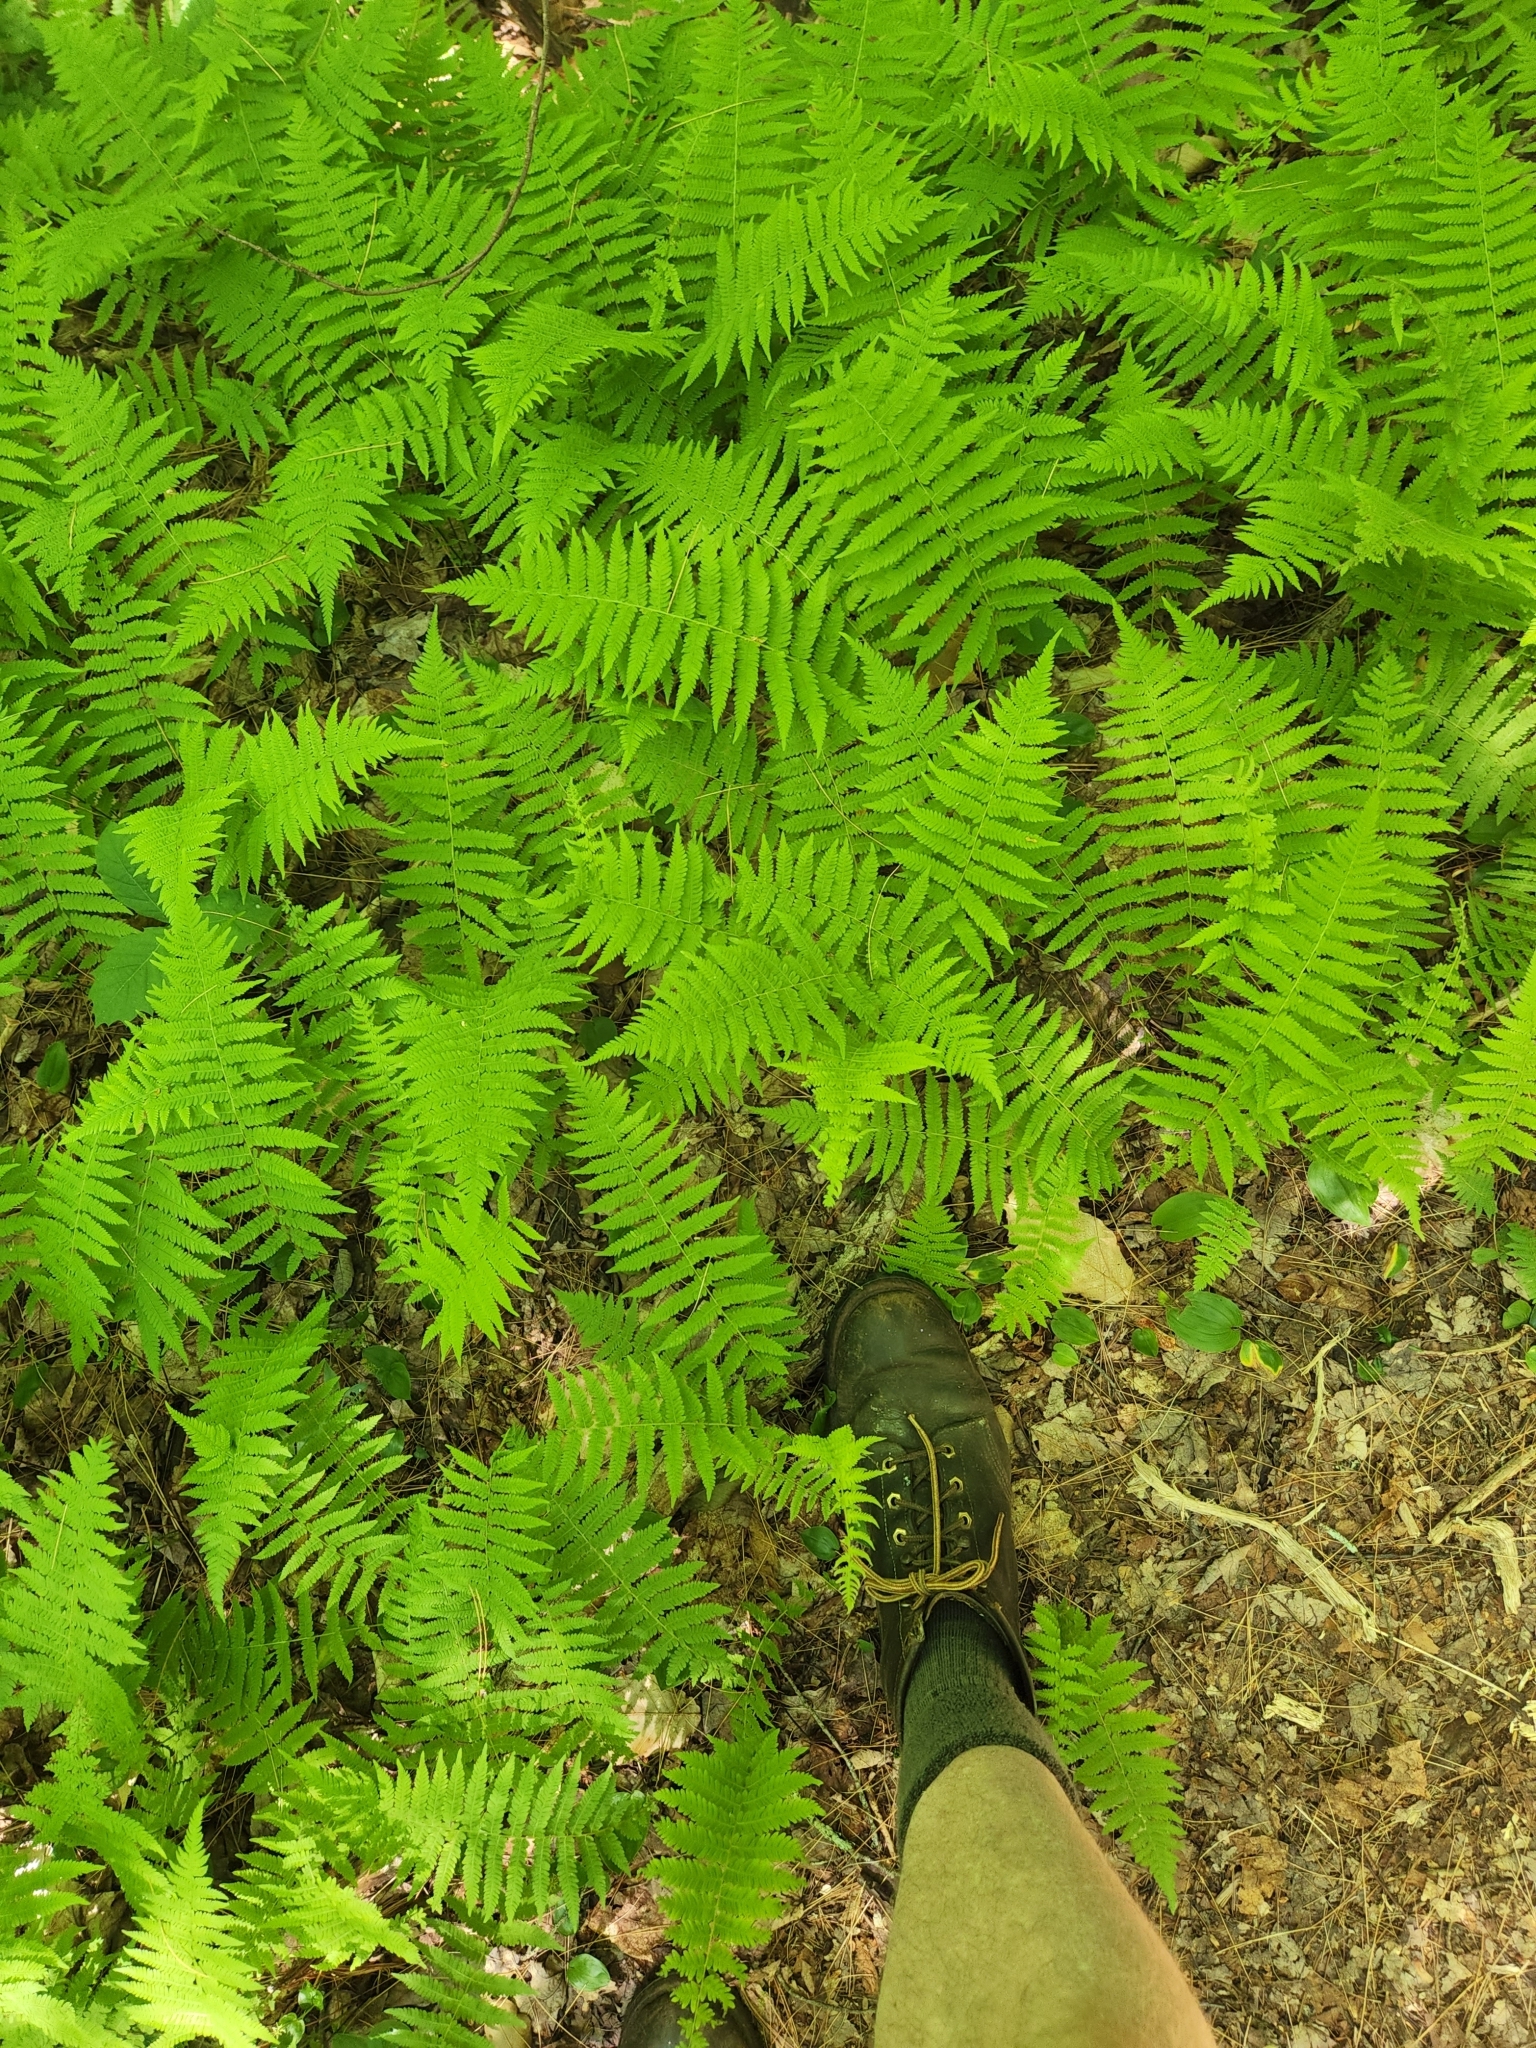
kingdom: Plantae
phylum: Tracheophyta
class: Polypodiopsida
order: Polypodiales
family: Thelypteridaceae
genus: Amauropelta
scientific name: Amauropelta noveboracensis
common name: New york fern
